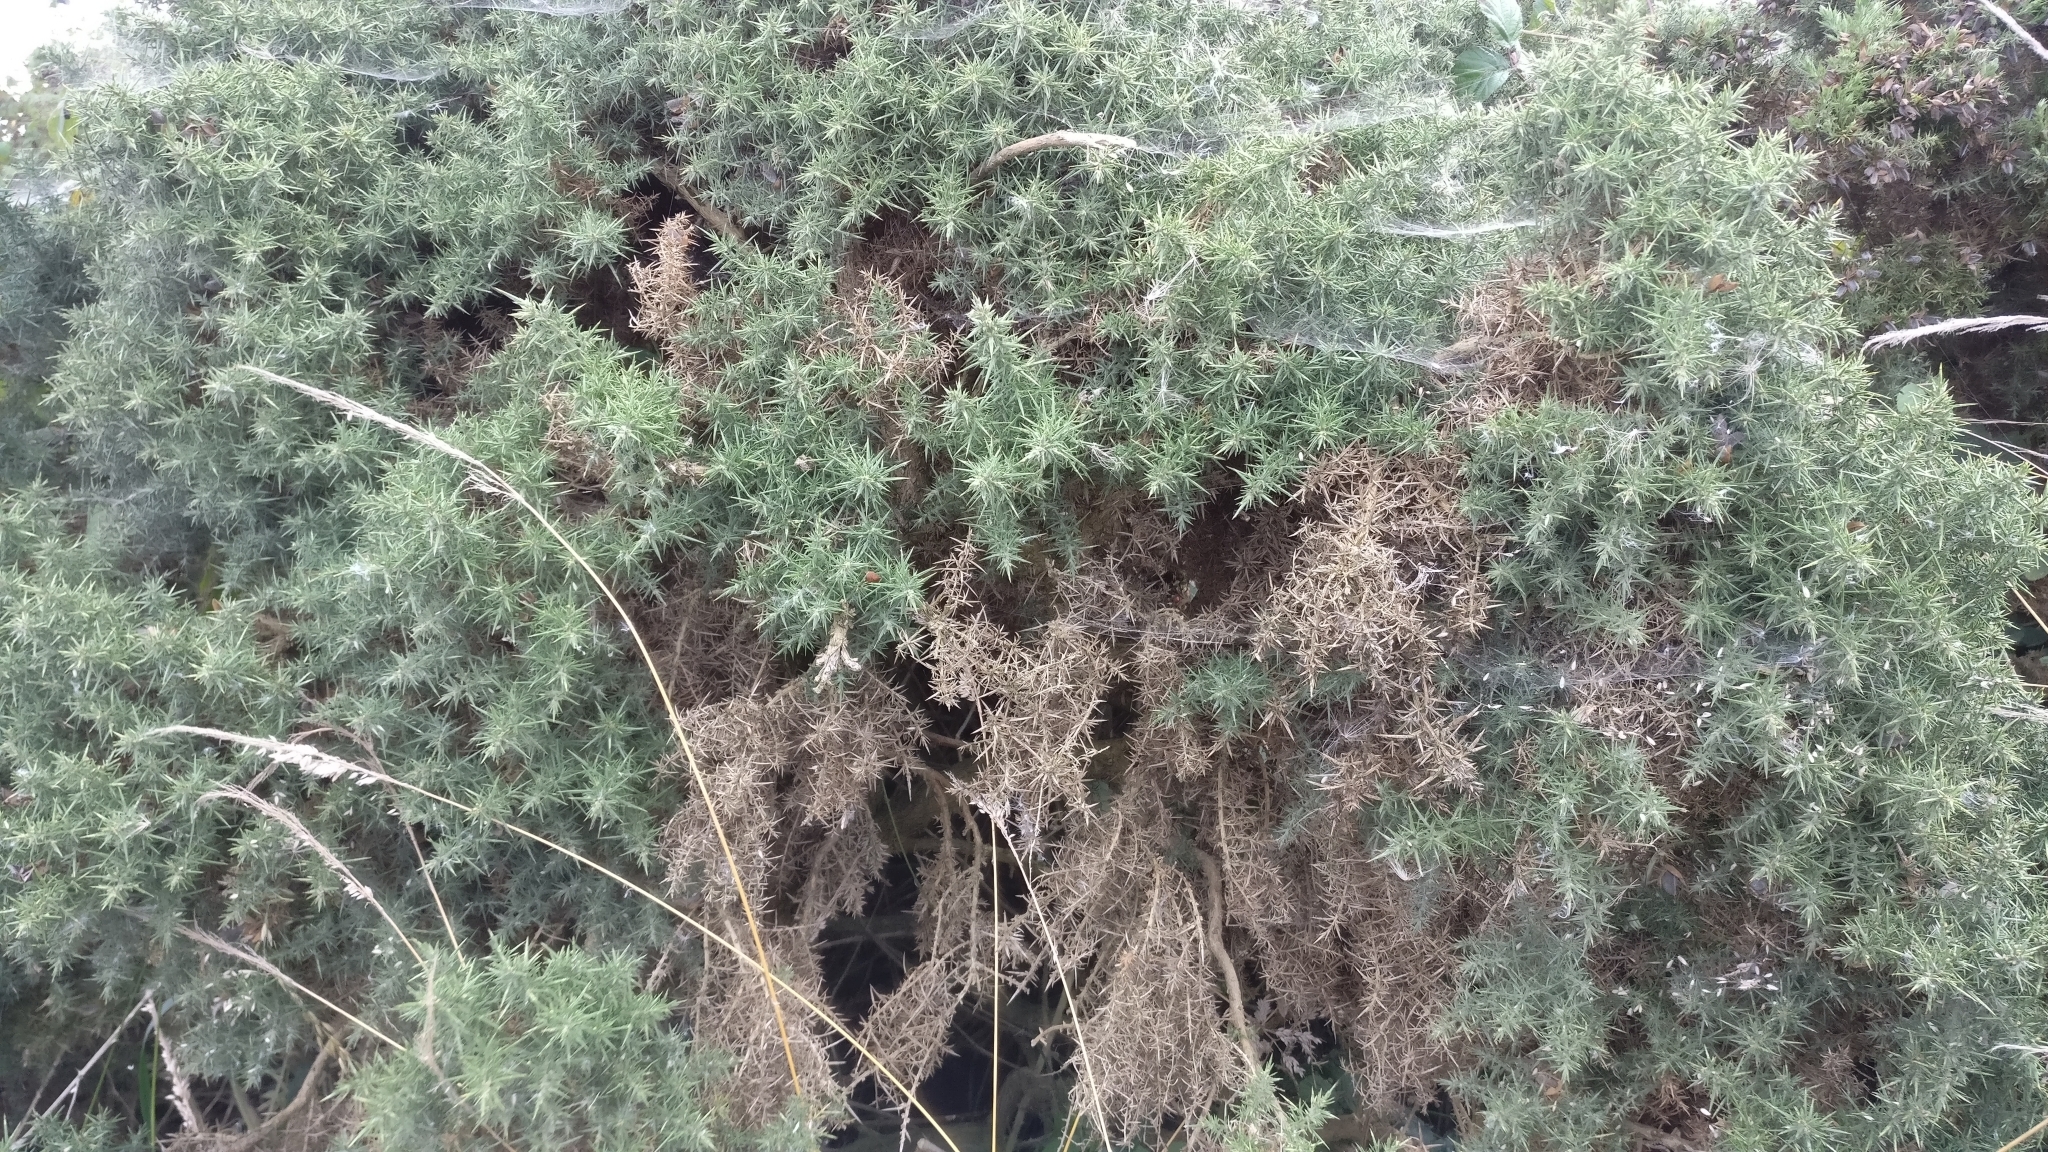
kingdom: Plantae
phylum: Tracheophyta
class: Magnoliopsida
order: Fabales
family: Fabaceae
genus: Ulex
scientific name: Ulex europaeus
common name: Common gorse
